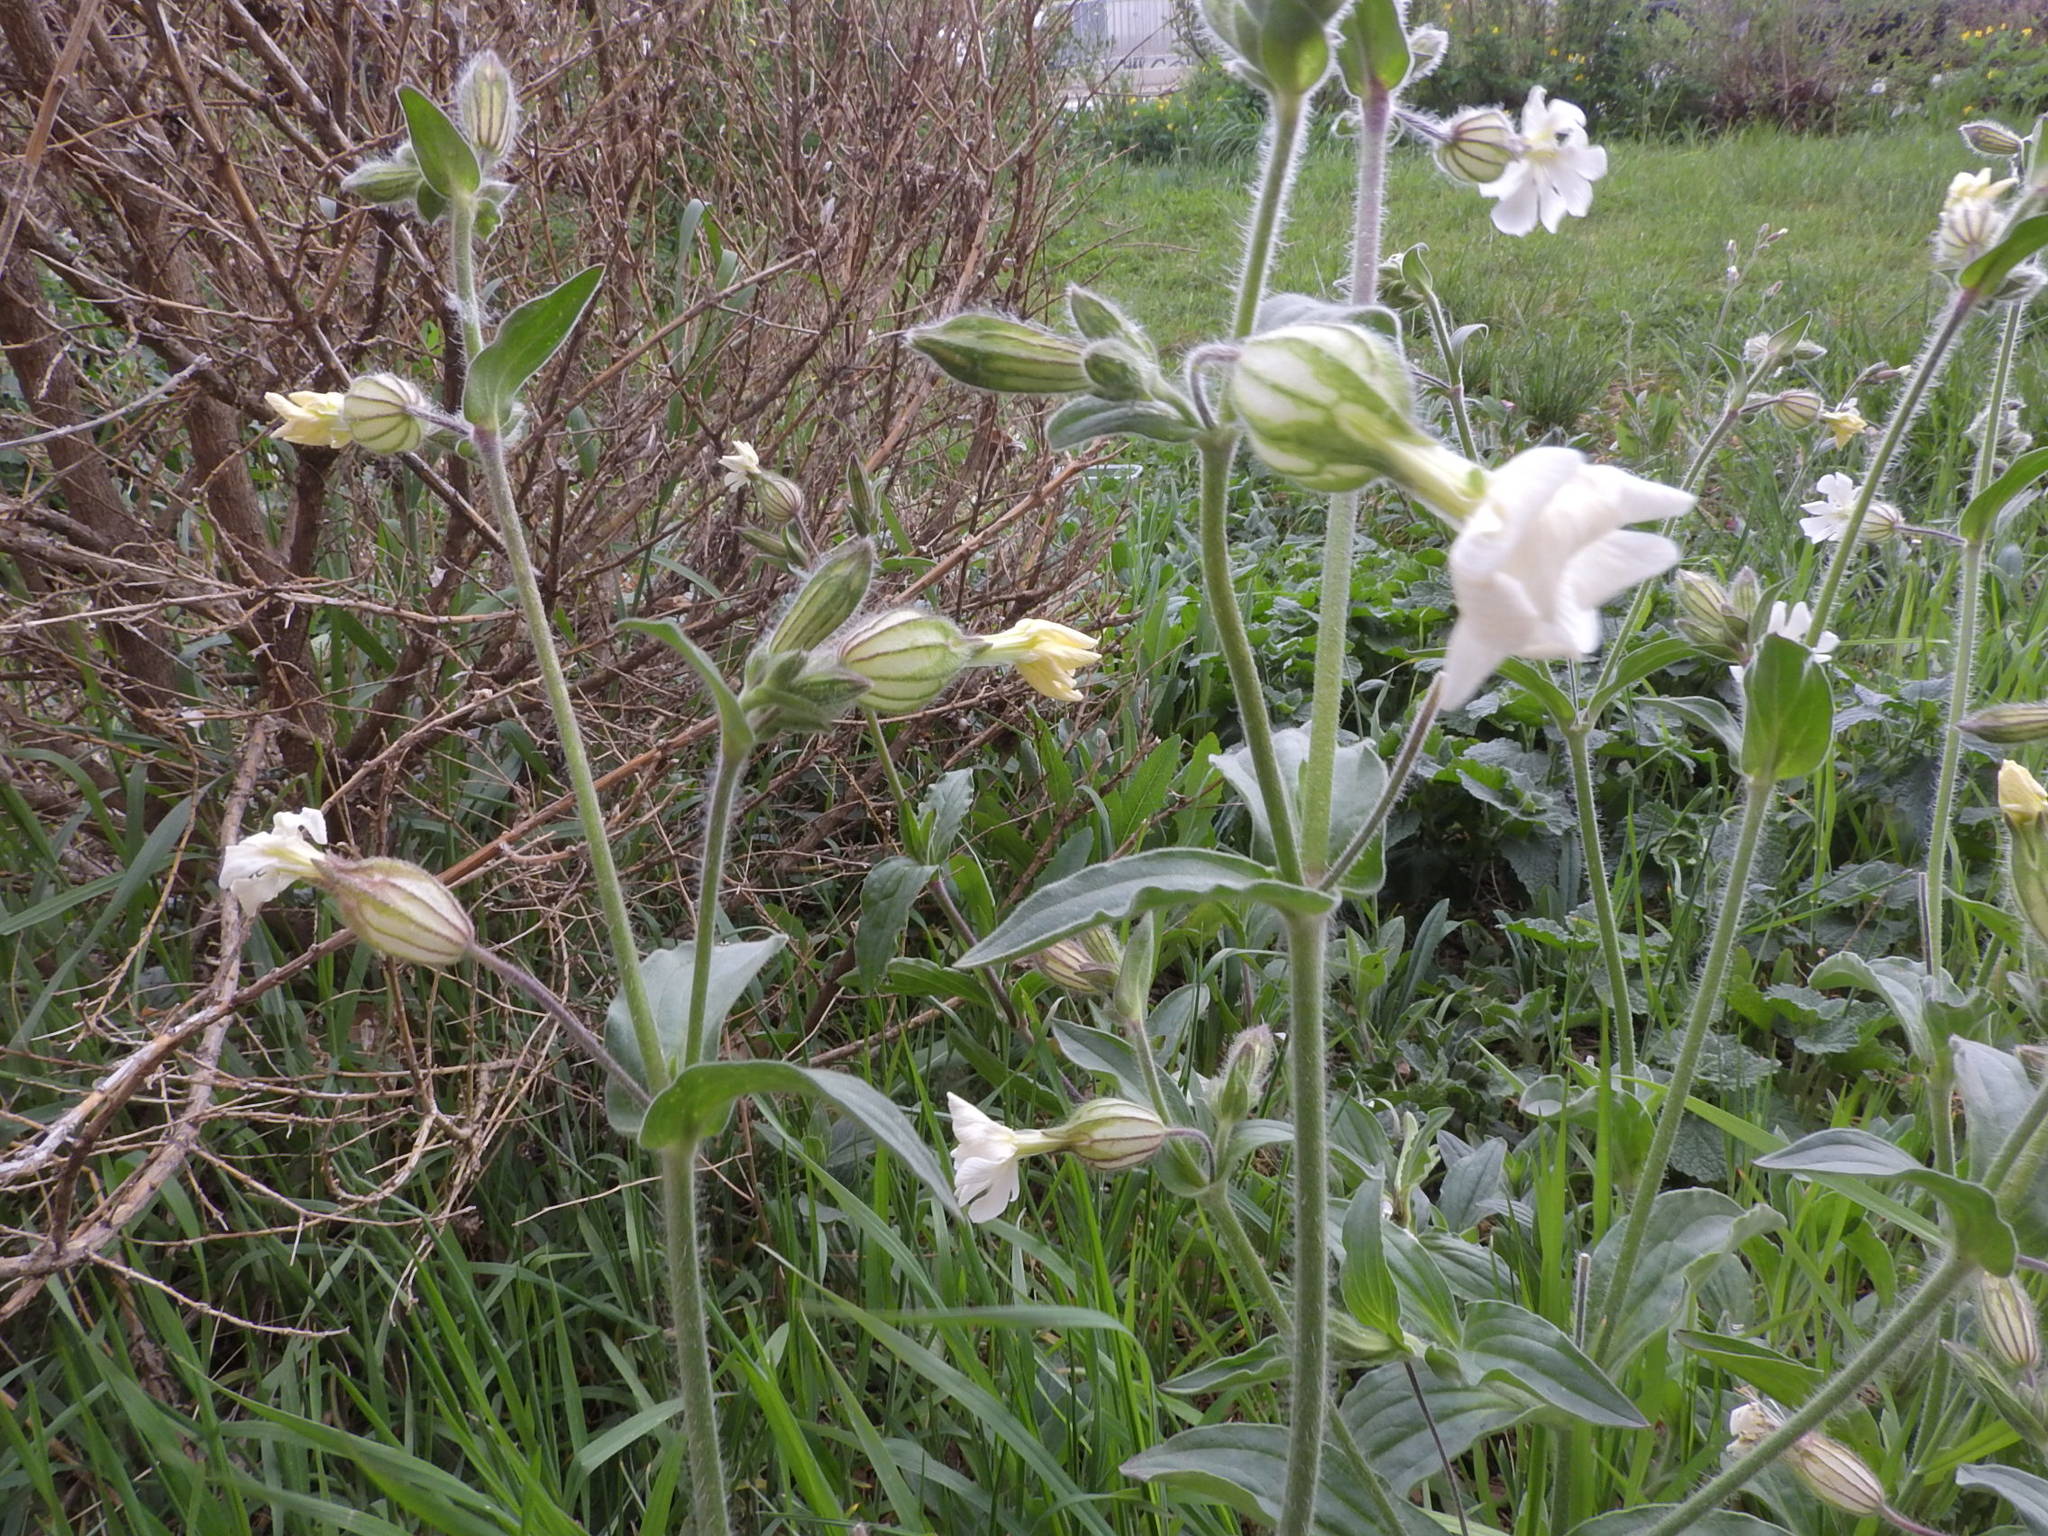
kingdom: Plantae
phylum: Tracheophyta
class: Magnoliopsida
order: Caryophyllales
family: Caryophyllaceae
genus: Silene
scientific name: Silene latifolia
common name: White campion
